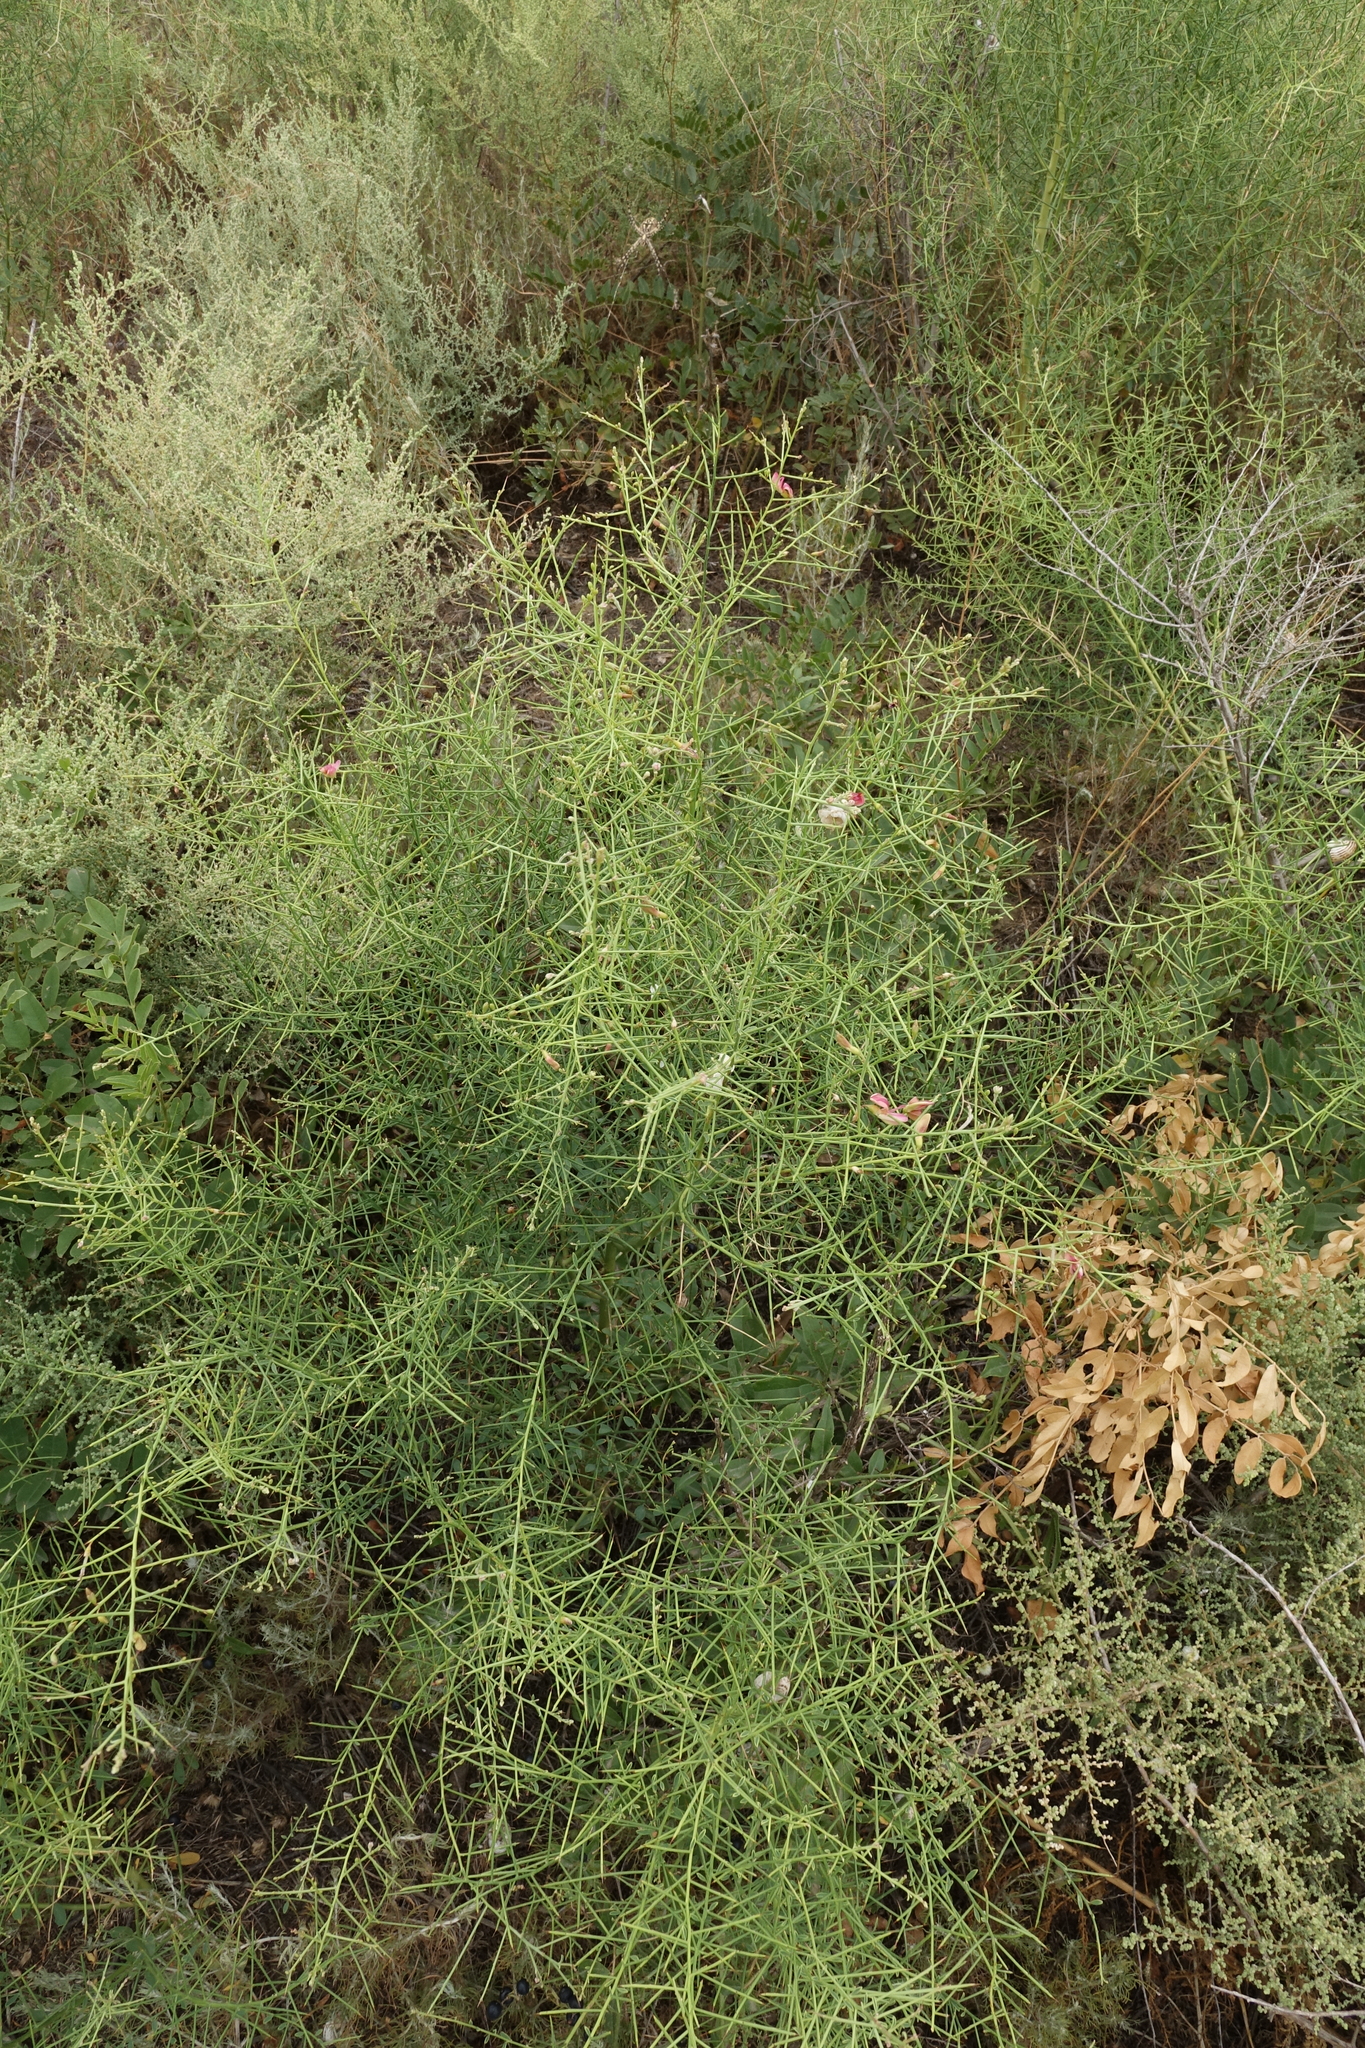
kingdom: Plantae
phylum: Tracheophyta
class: Magnoliopsida
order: Fabales
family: Fabaceae
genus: Alhagi
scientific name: Alhagi pseudalhagi
